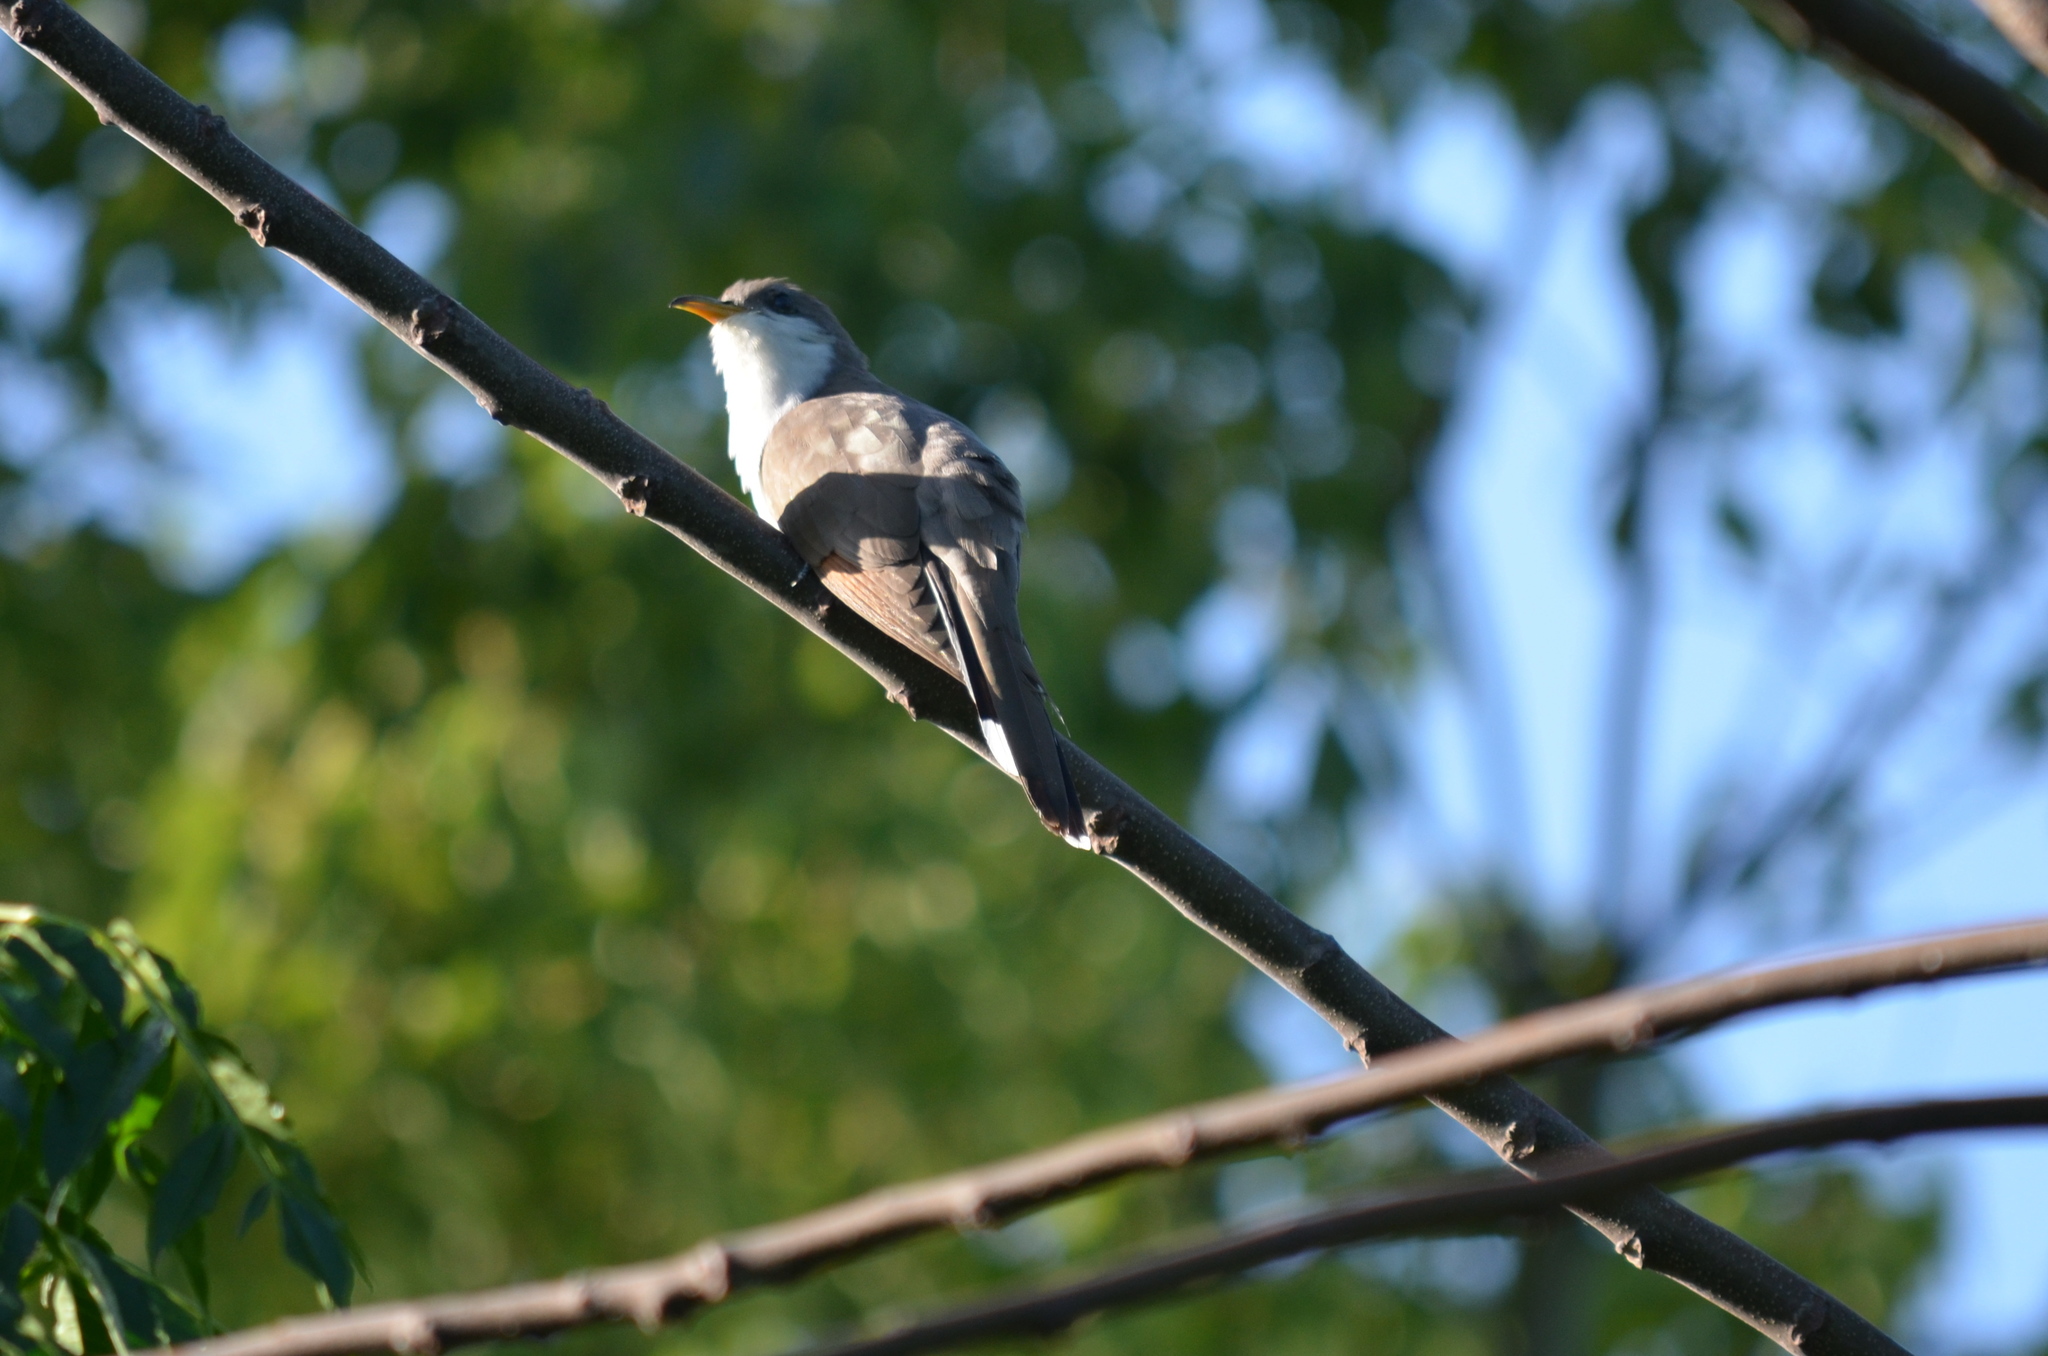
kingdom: Animalia
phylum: Chordata
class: Aves
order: Cuculiformes
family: Cuculidae
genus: Coccyzus
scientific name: Coccyzus americanus
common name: Yellow-billed cuckoo
